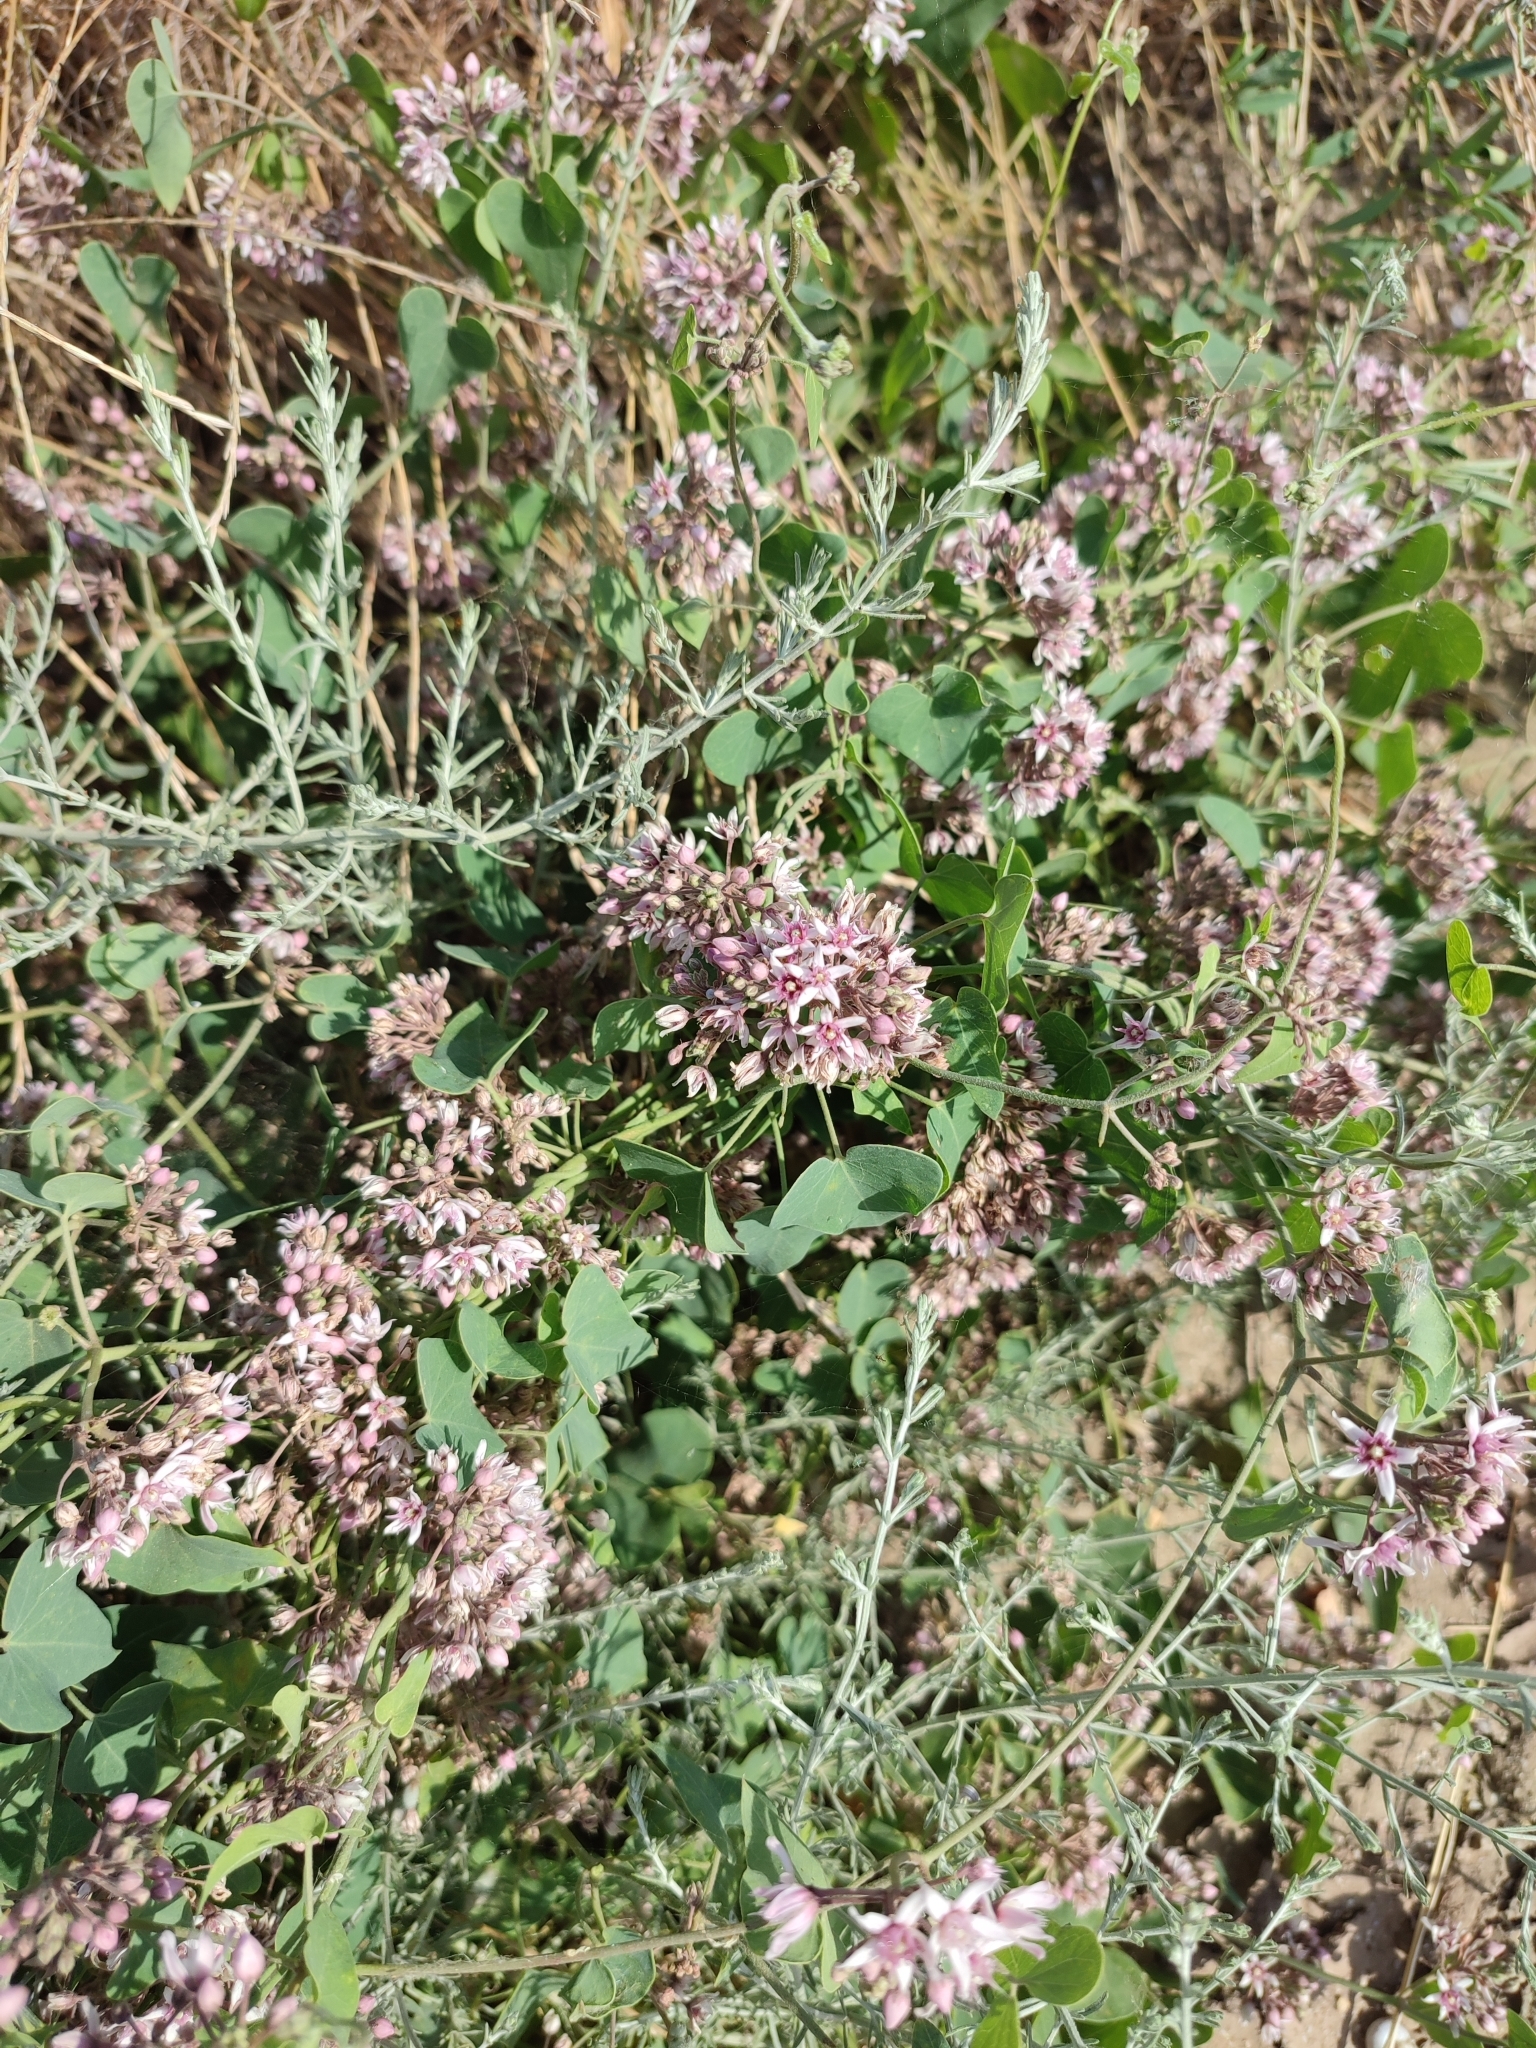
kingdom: Plantae
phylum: Tracheophyta
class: Magnoliopsida
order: Gentianales
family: Apocynaceae
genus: Cynanchum
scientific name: Cynanchum acutum
